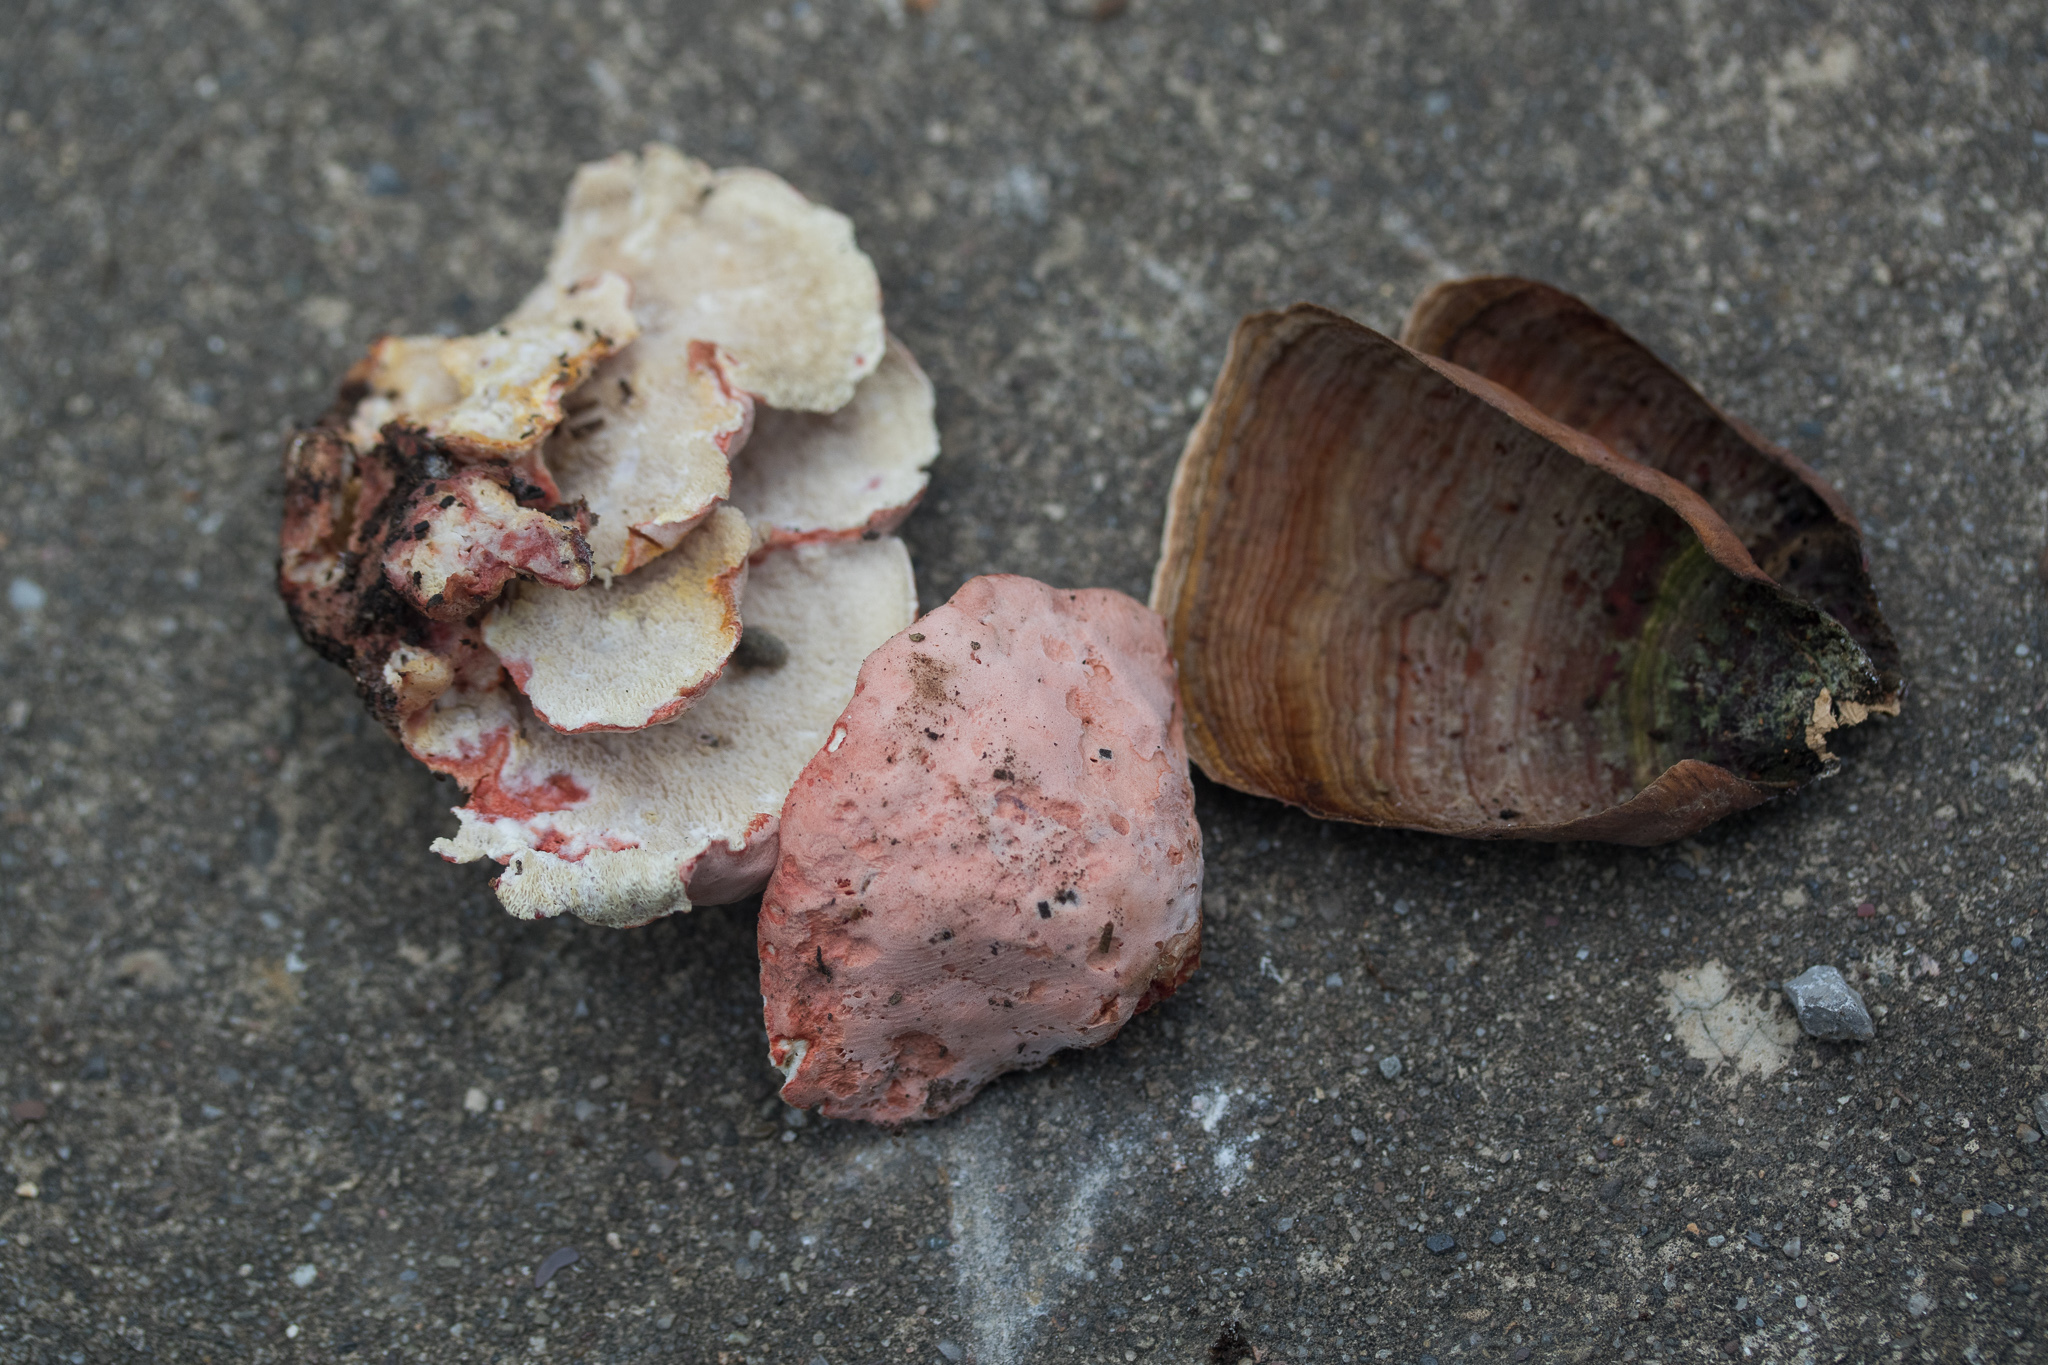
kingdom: Fungi
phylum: Basidiomycota
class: Agaricomycetes
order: Polyporales
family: Irpicaceae
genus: Byssomerulius
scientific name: Byssomerulius incarnatus
